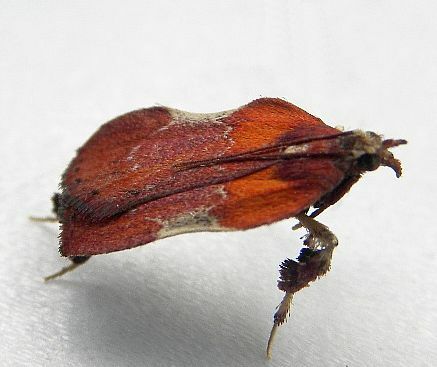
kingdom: Animalia
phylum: Arthropoda
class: Insecta
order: Lepidoptera
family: Pyralidae
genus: Galasa
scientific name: Galasa nigrinodis
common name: Boxwood leaftier moth
